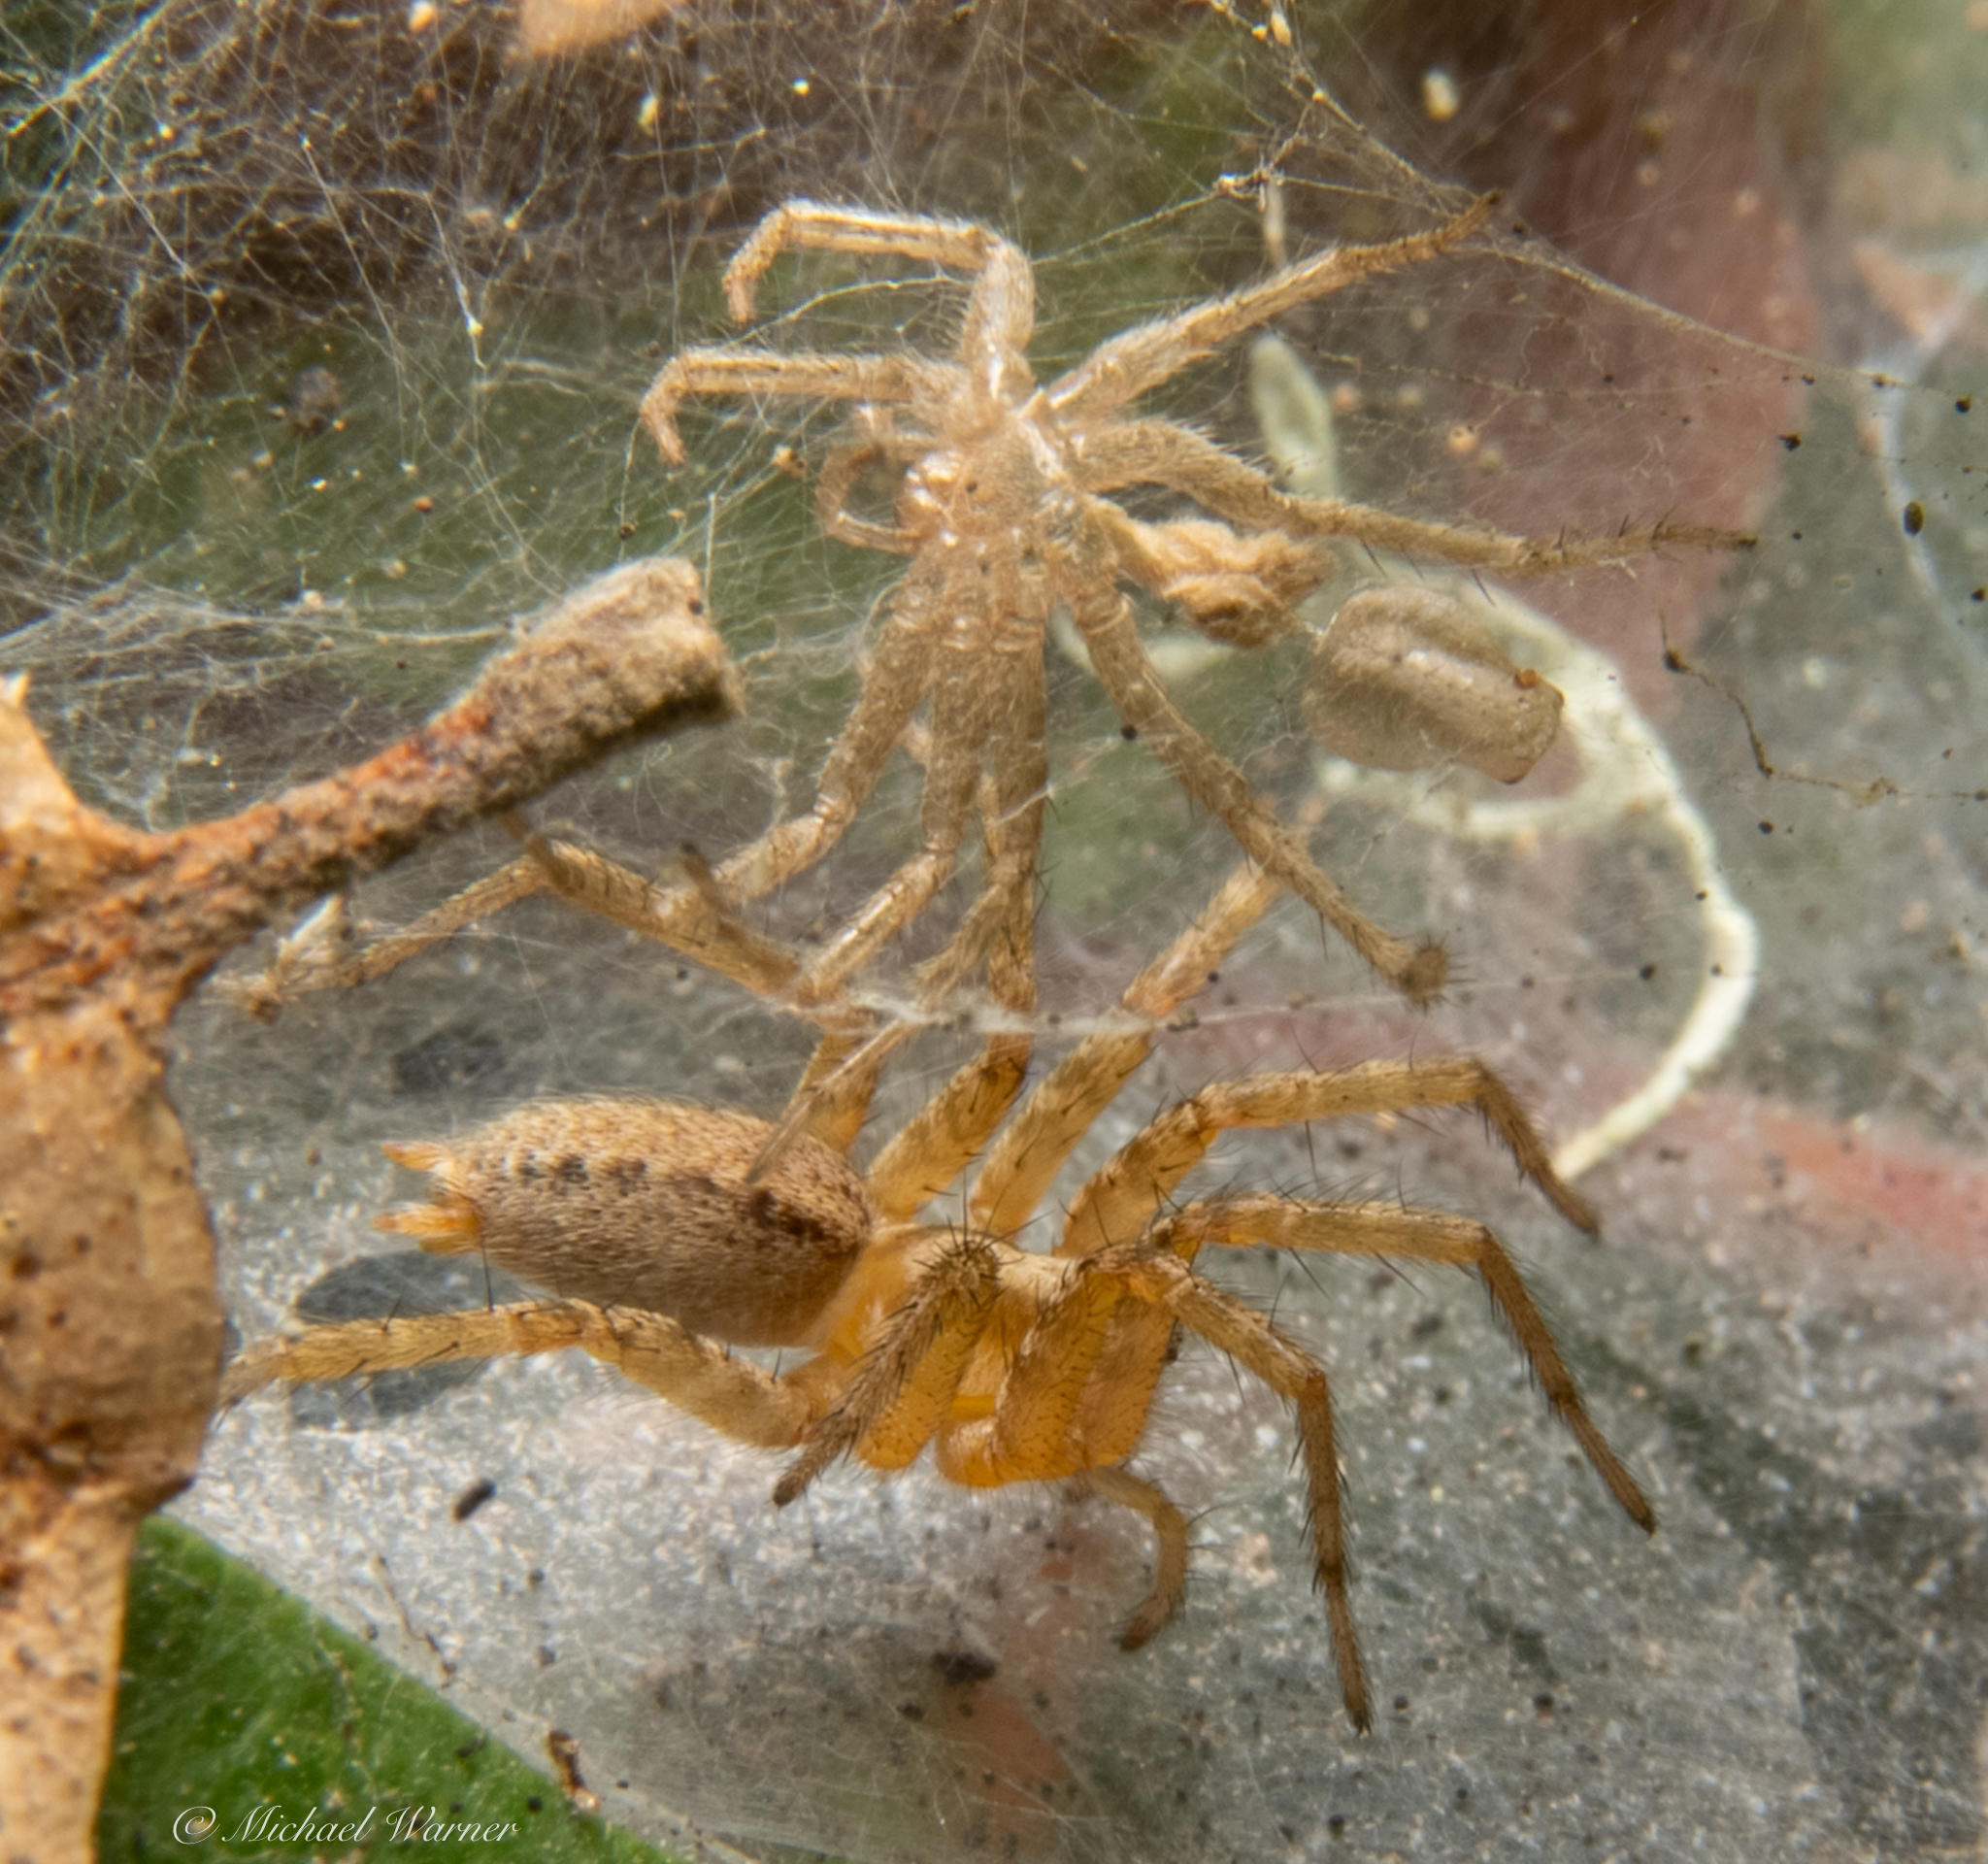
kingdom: Animalia
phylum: Arthropoda
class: Arachnida
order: Araneae
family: Agelenidae
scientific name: Agelenidae
